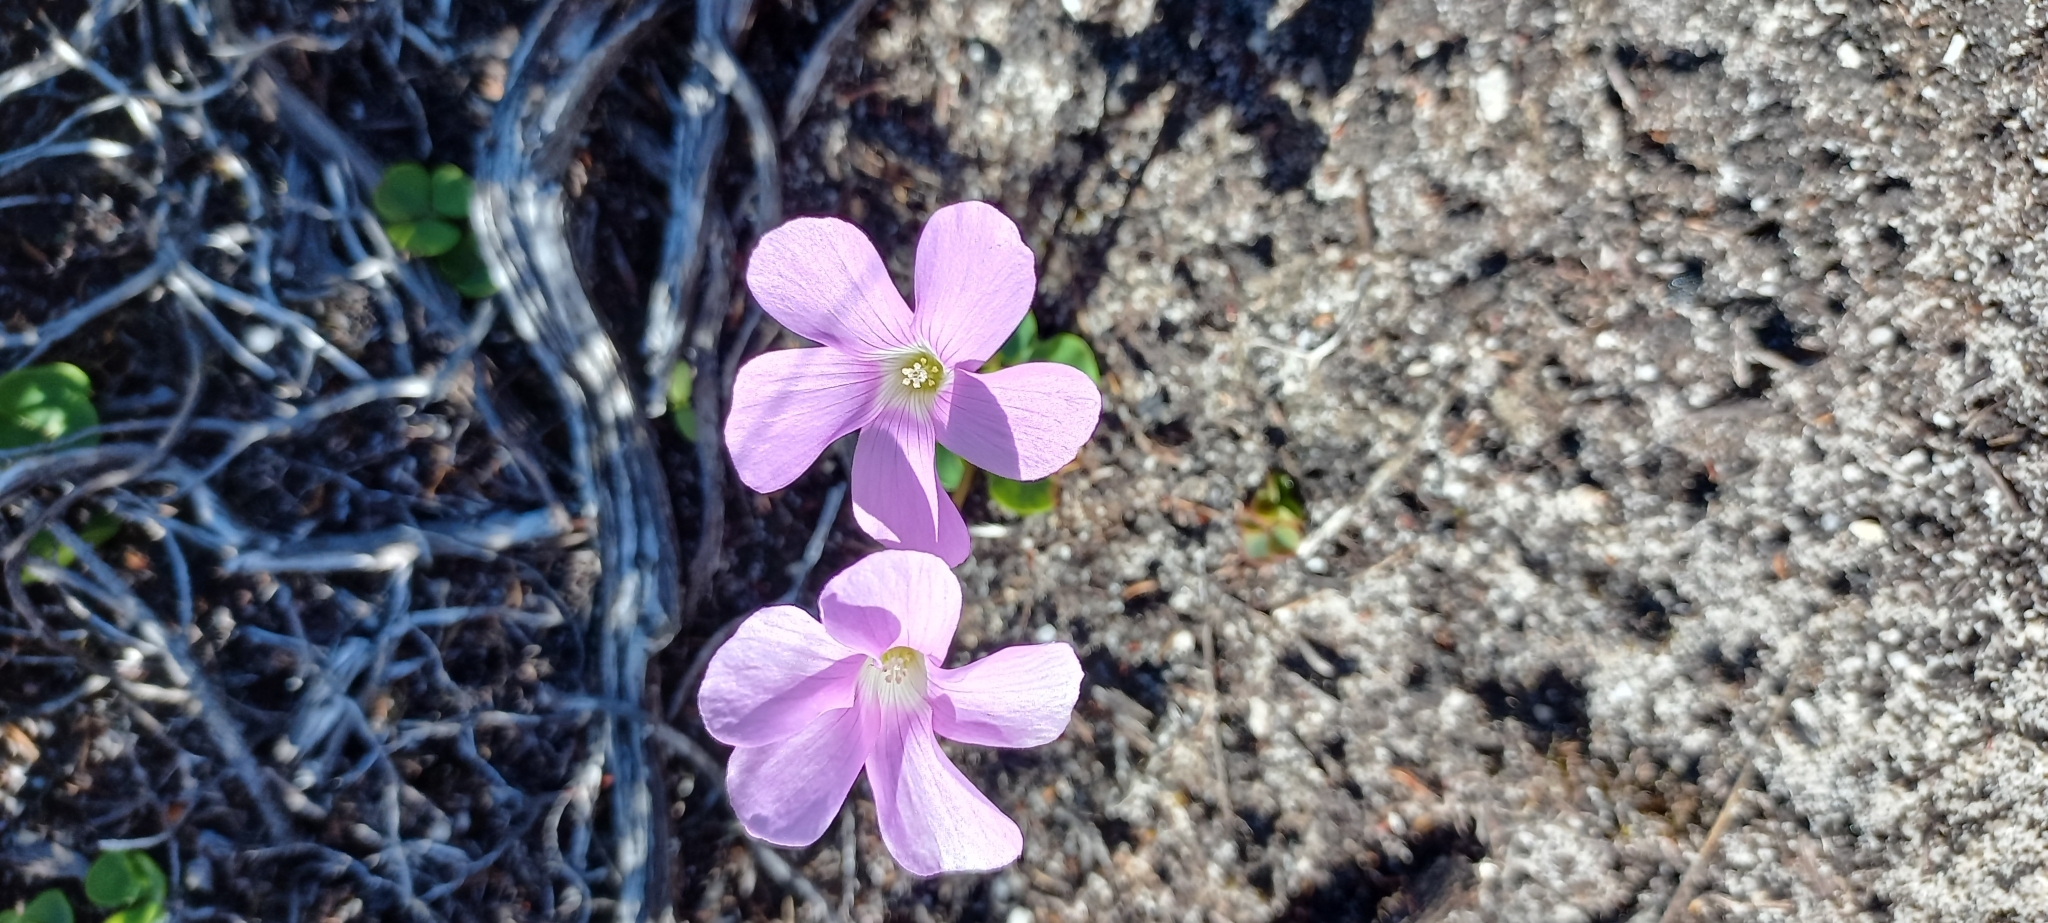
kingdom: Plantae
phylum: Tracheophyta
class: Magnoliopsida
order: Oxalidales
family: Oxalidaceae
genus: Oxalis
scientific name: Oxalis commutata
